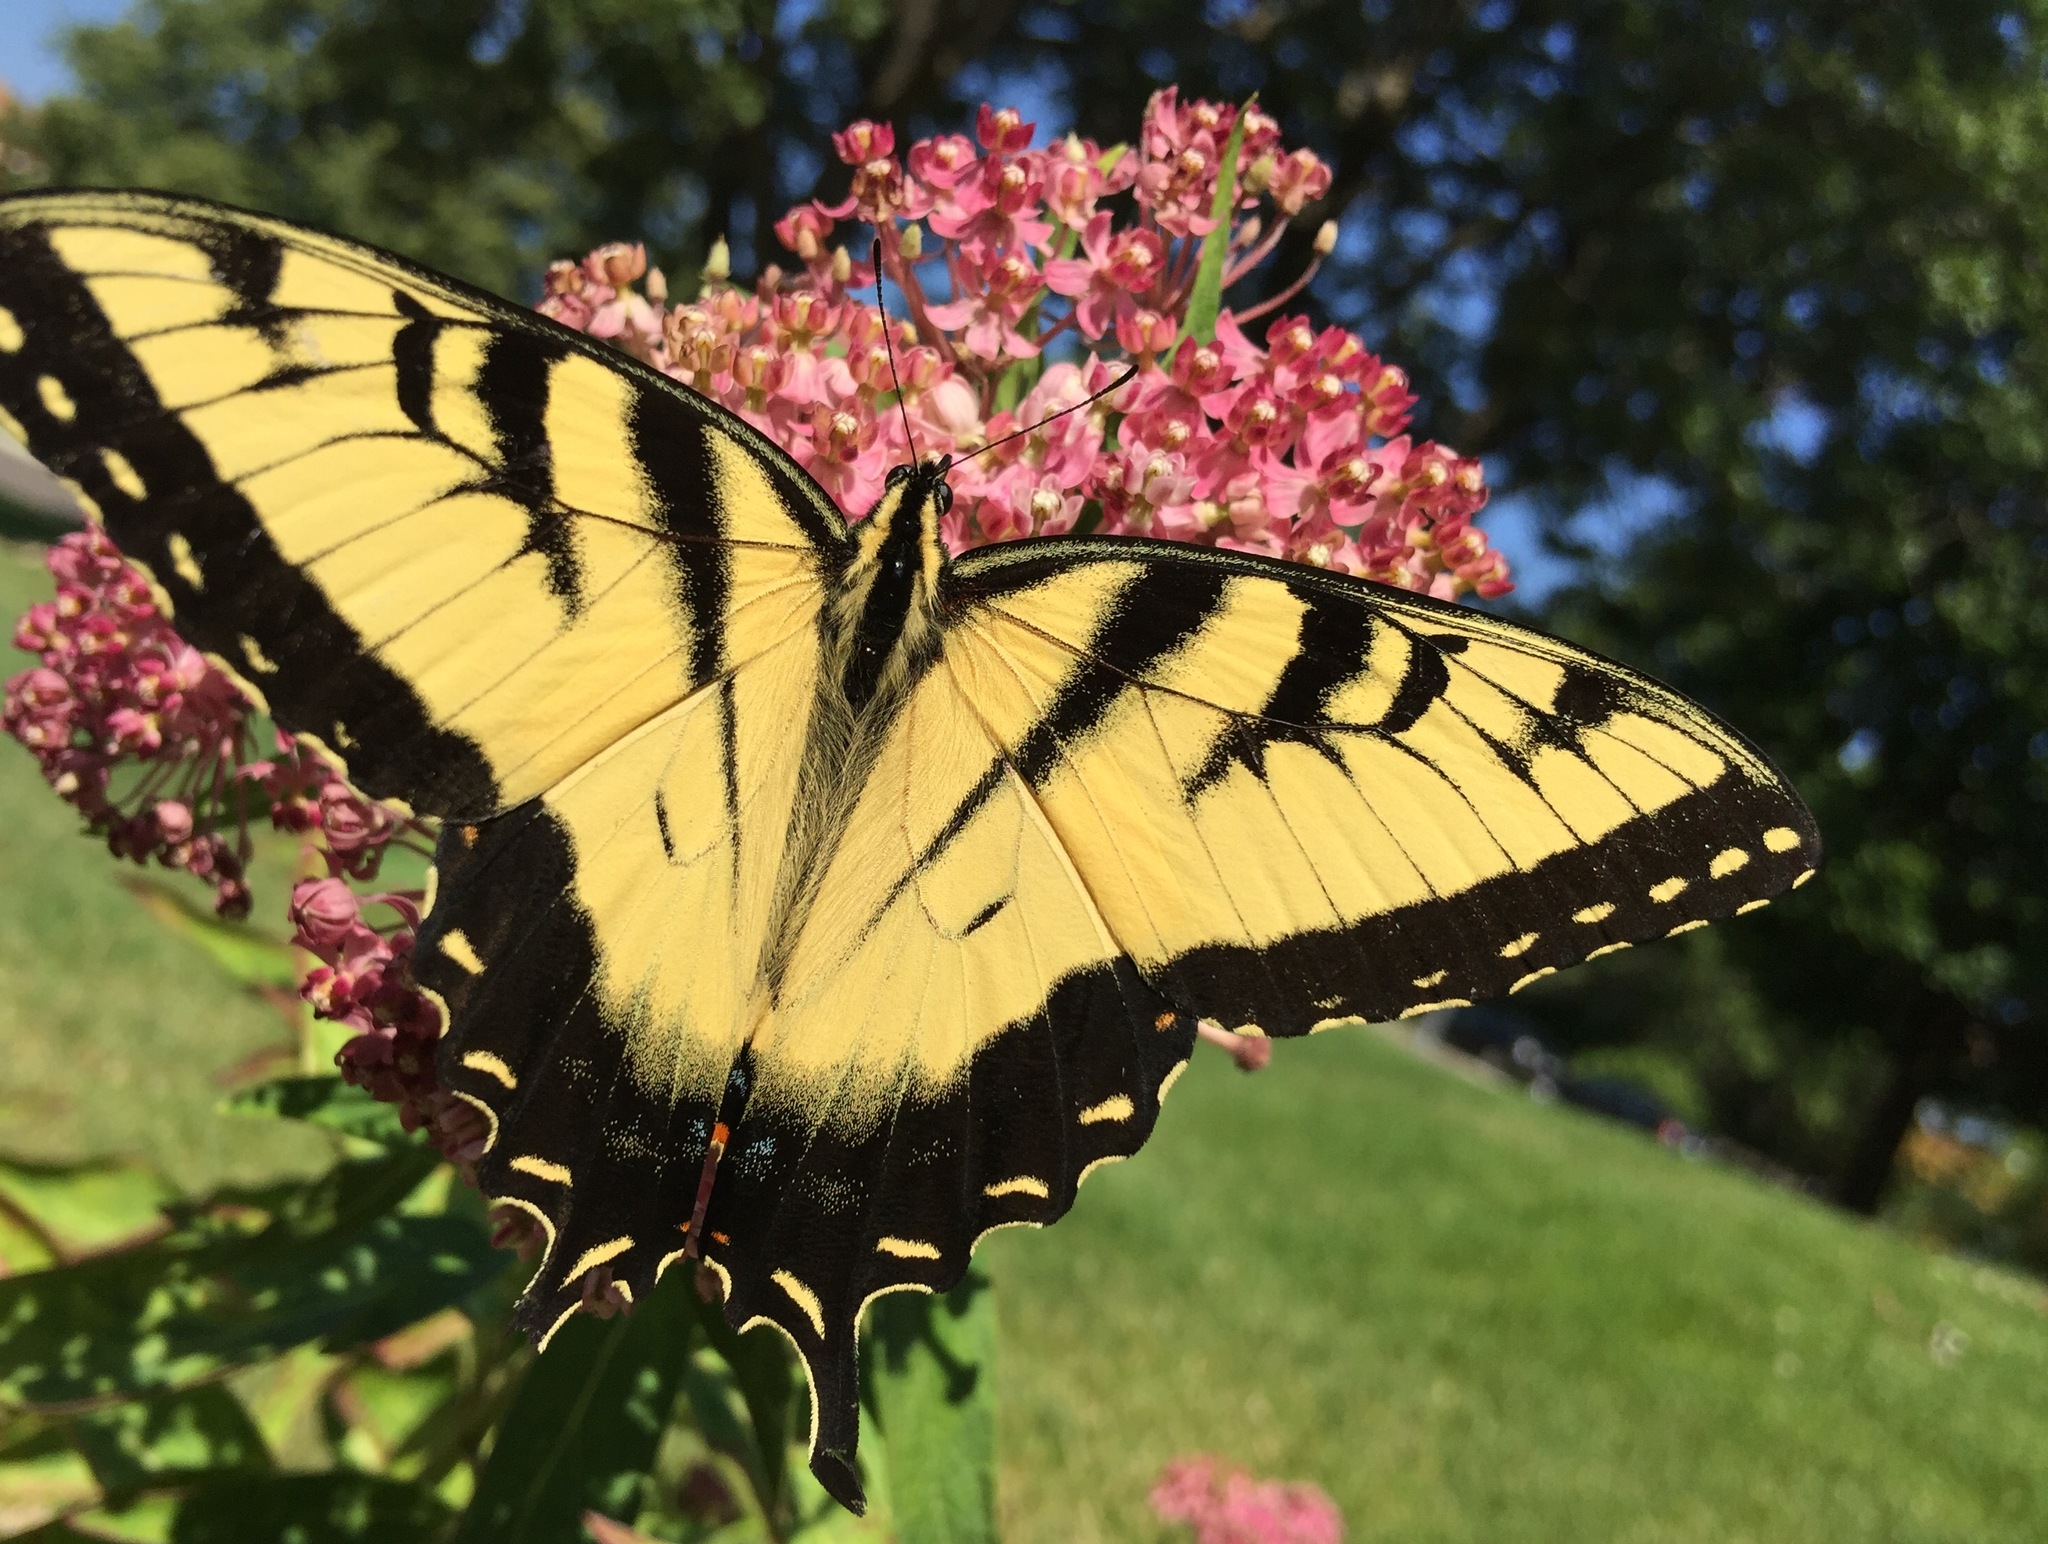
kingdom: Animalia
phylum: Arthropoda
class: Insecta
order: Lepidoptera
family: Papilionidae
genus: Papilio
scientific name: Papilio glaucus
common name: Tiger swallowtail
